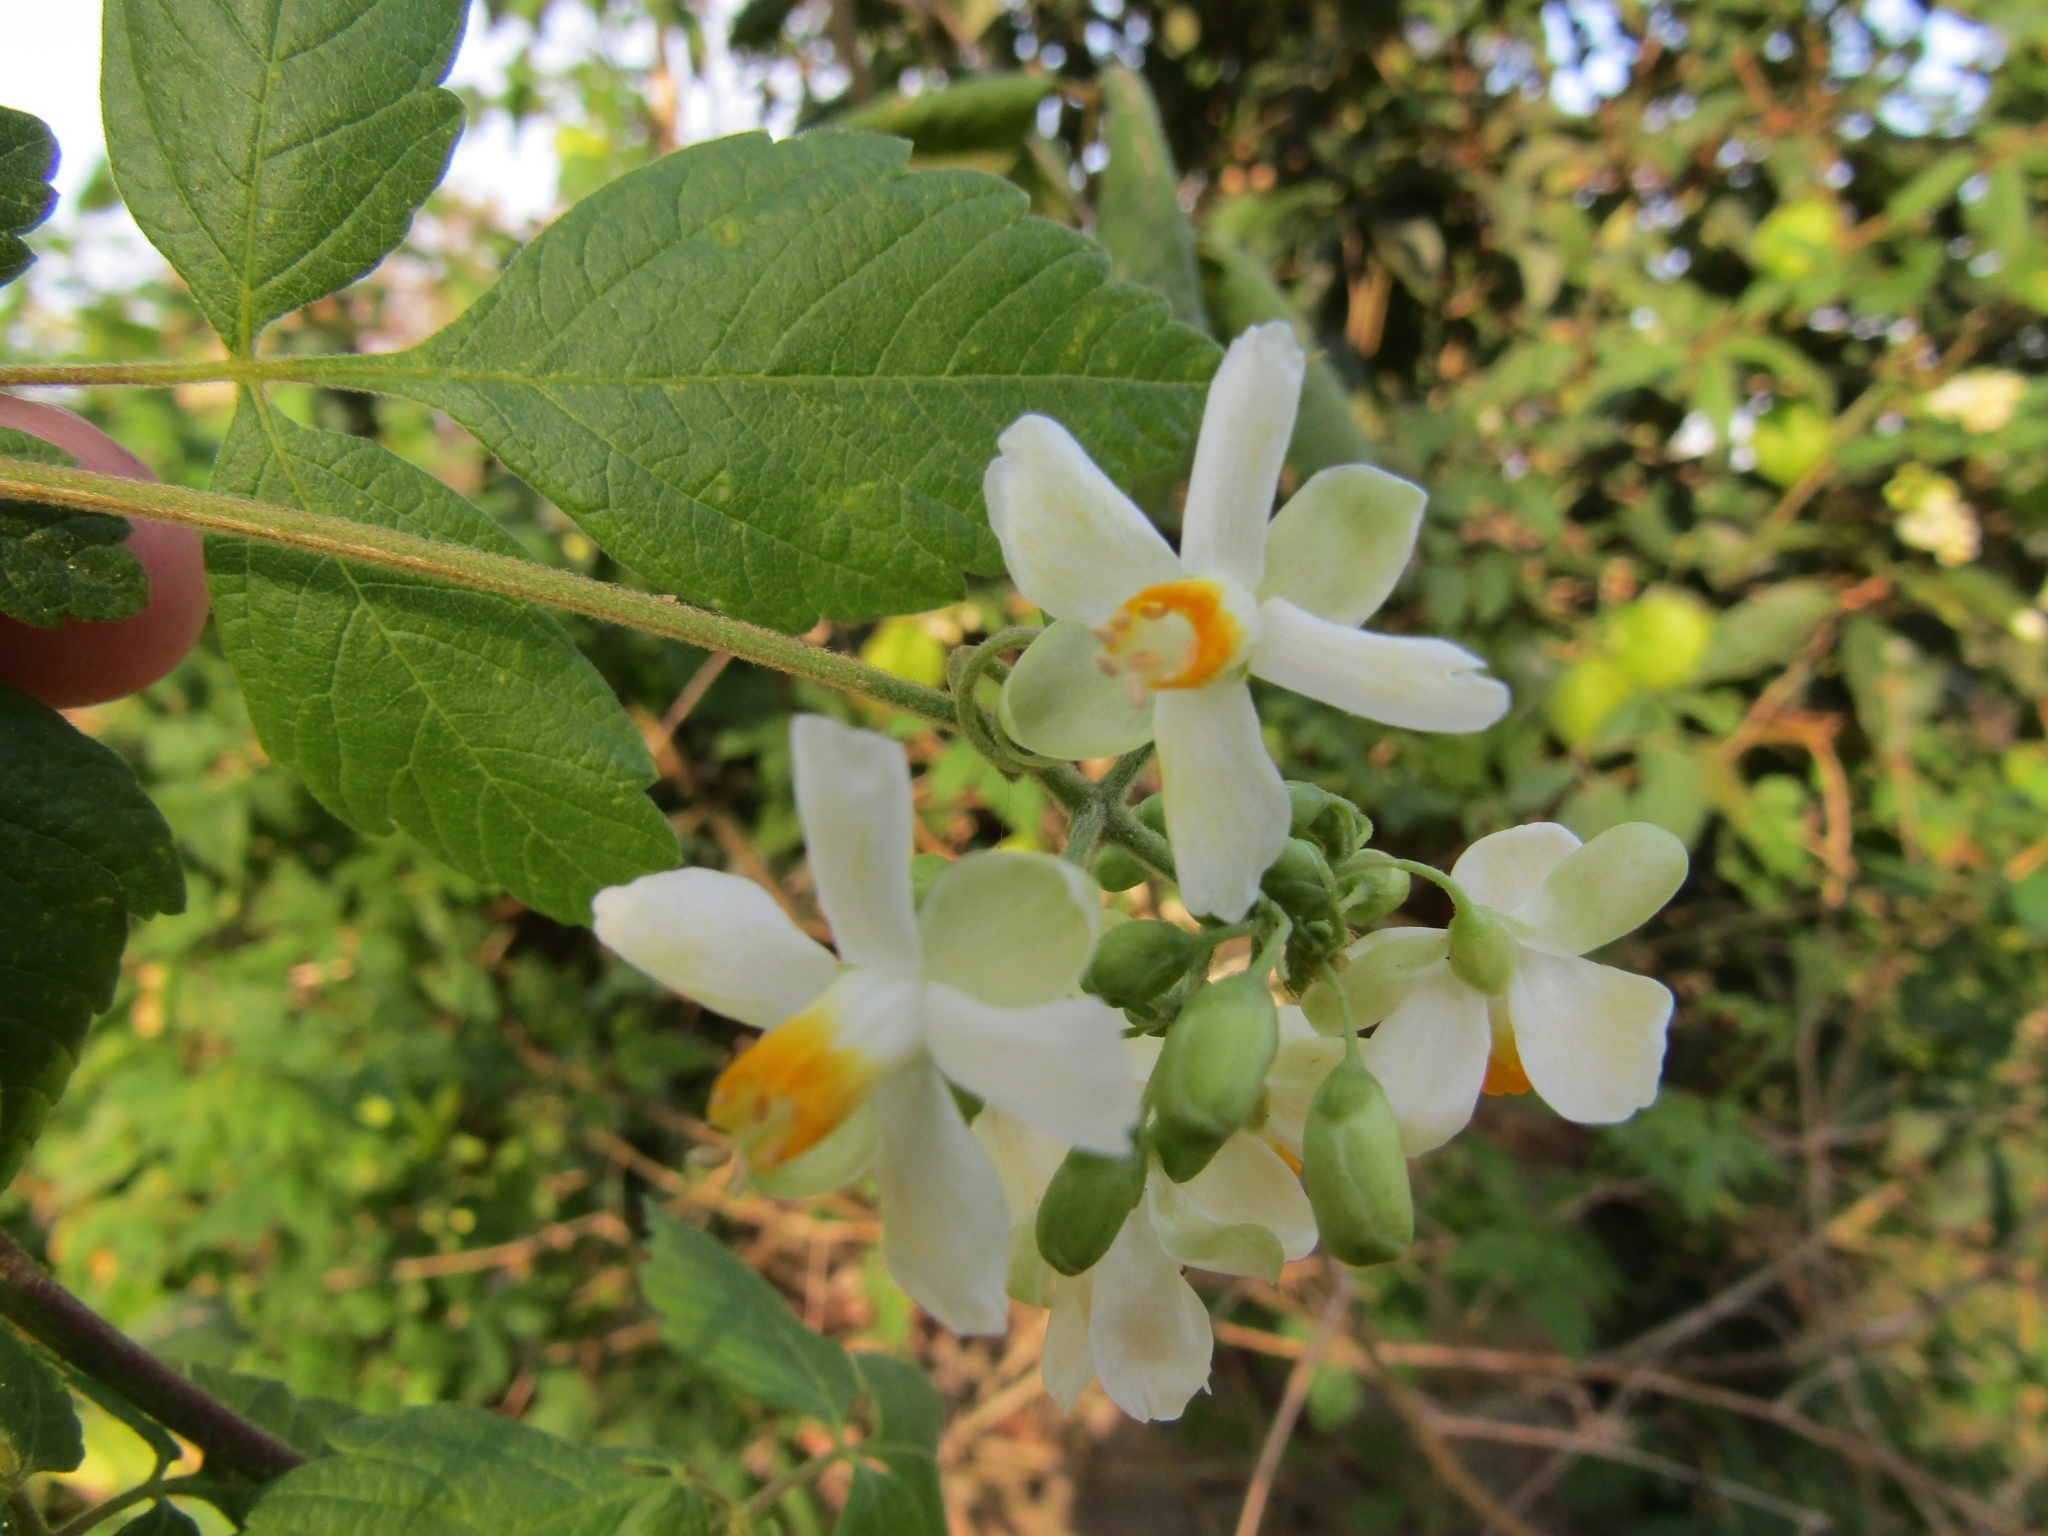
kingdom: Plantae
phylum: Tracheophyta
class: Magnoliopsida
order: Sapindales
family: Sapindaceae
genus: Cardiospermum
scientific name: Cardiospermum grandiflorum
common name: Balloon vine
